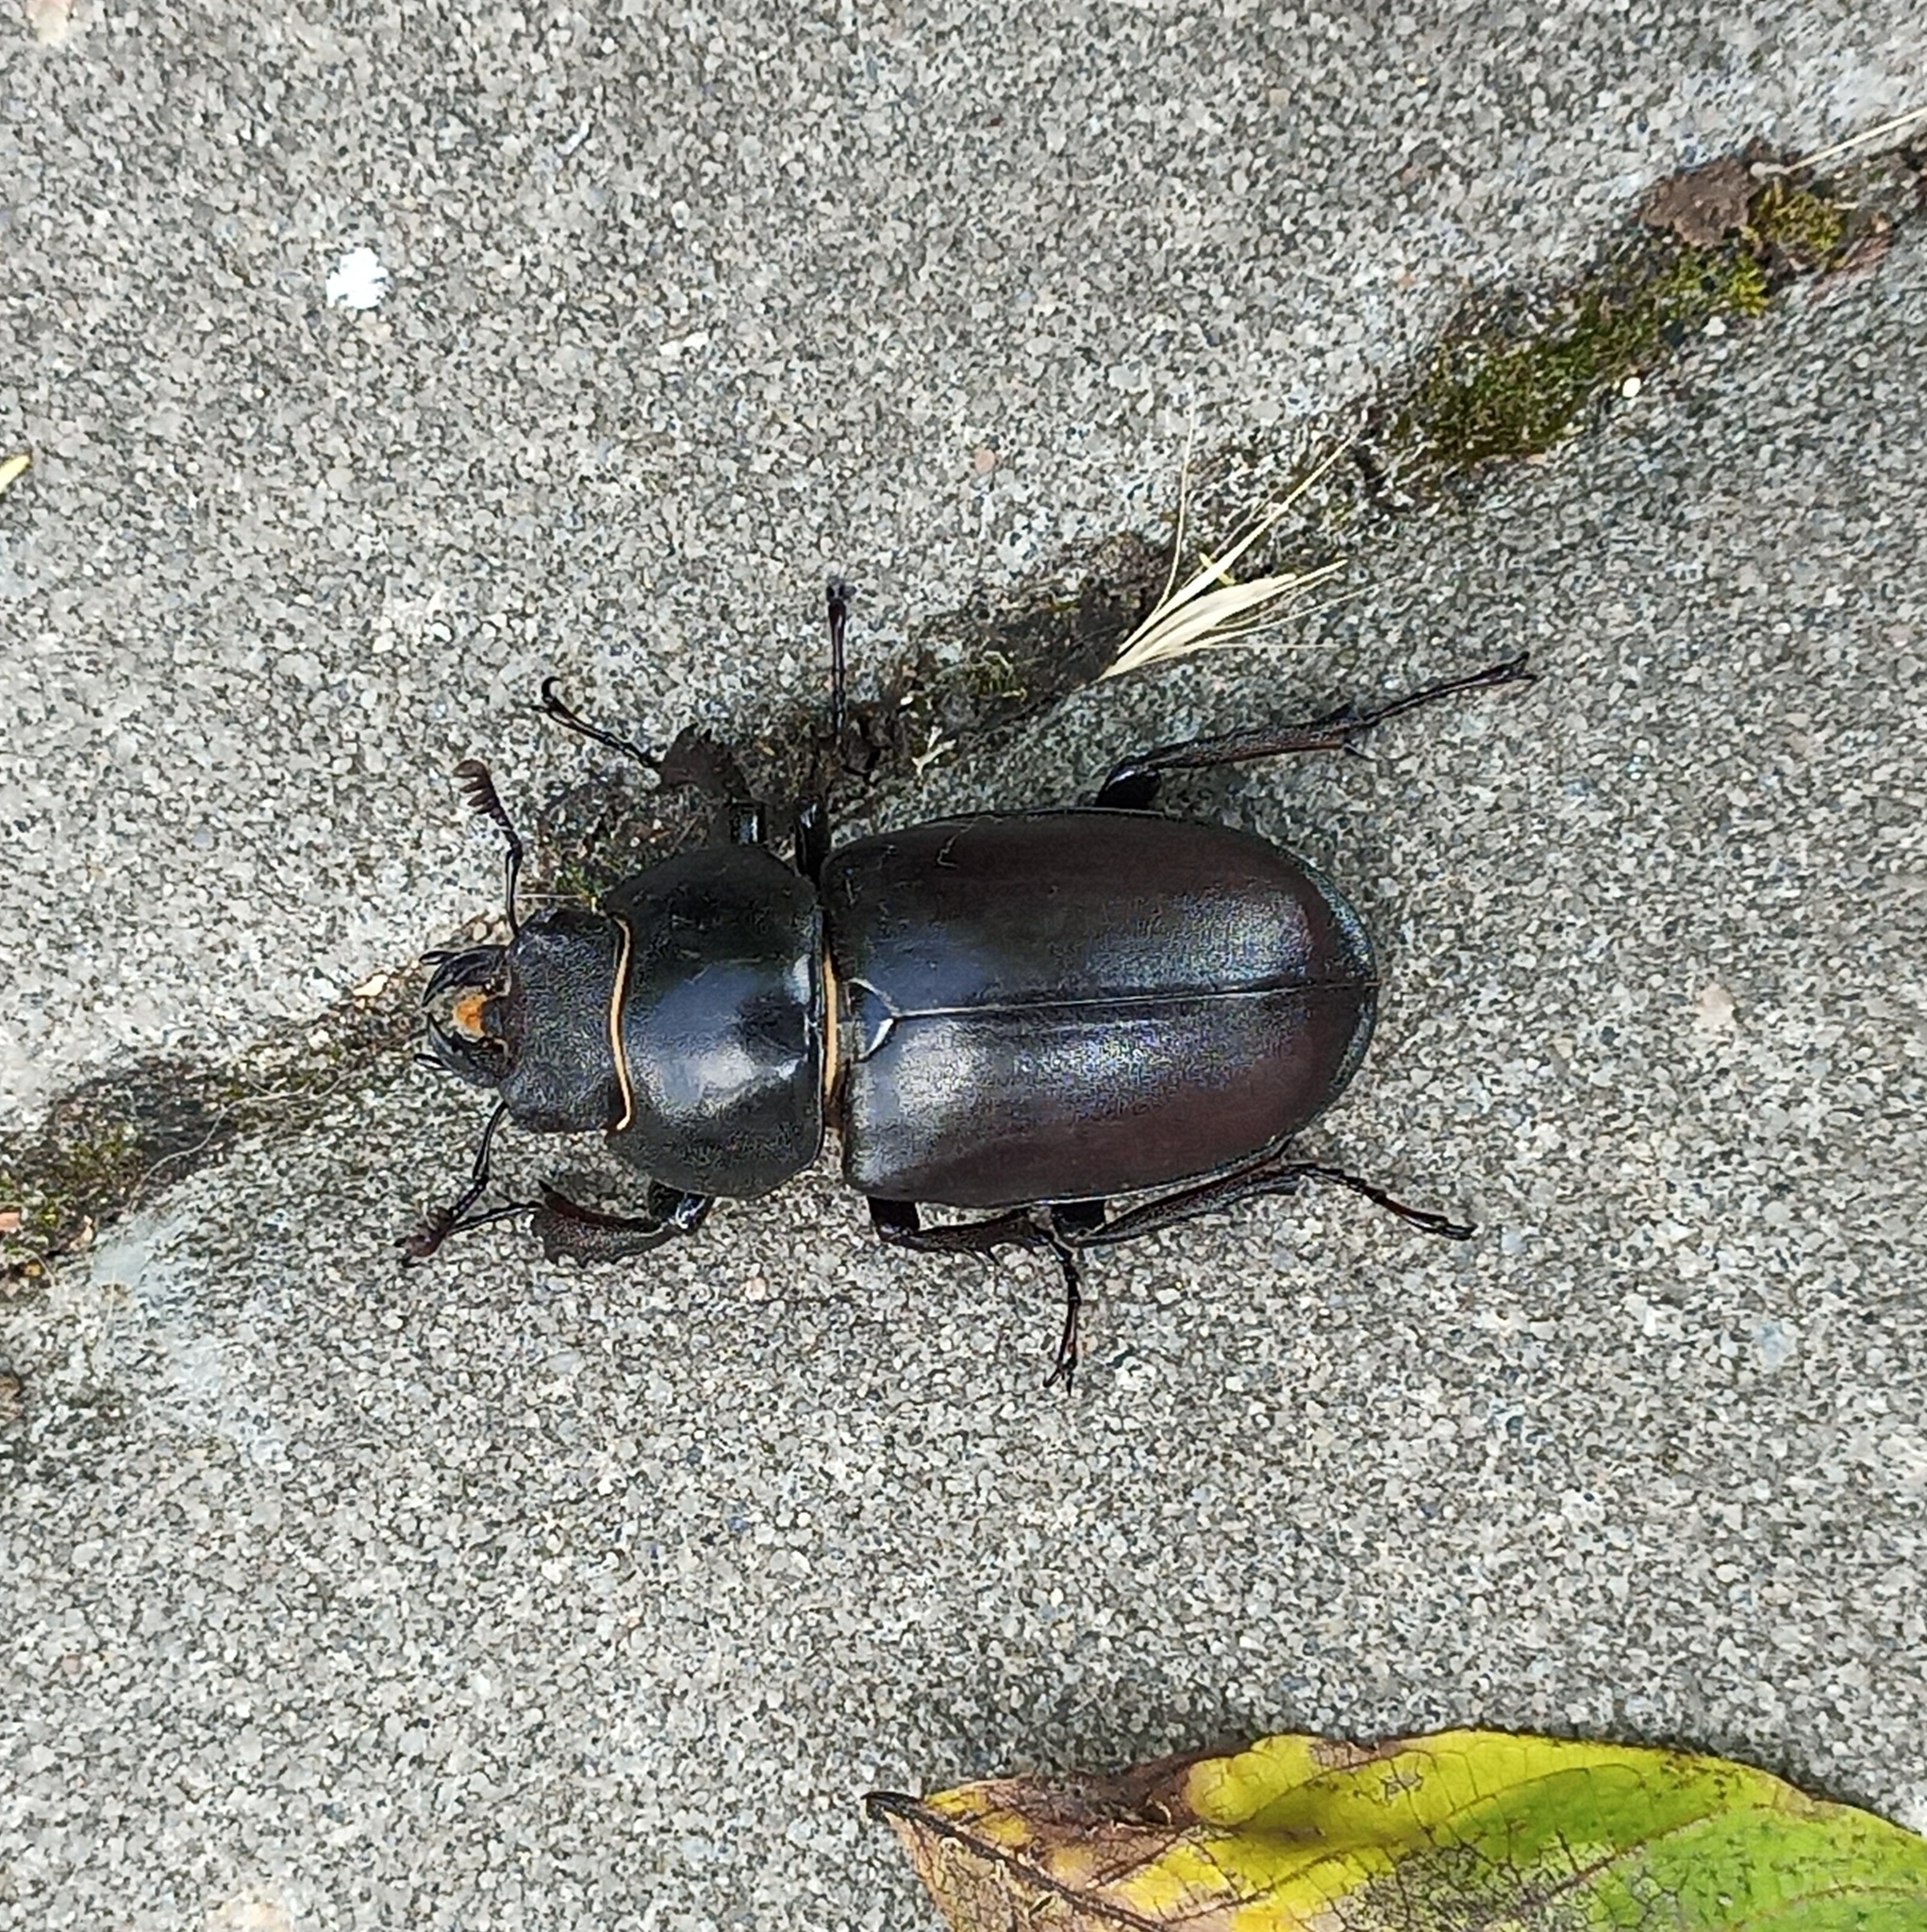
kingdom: Animalia
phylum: Arthropoda
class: Insecta
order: Coleoptera
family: Lucanidae
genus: Lucanus
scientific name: Lucanus cervus
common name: Stag beetle
